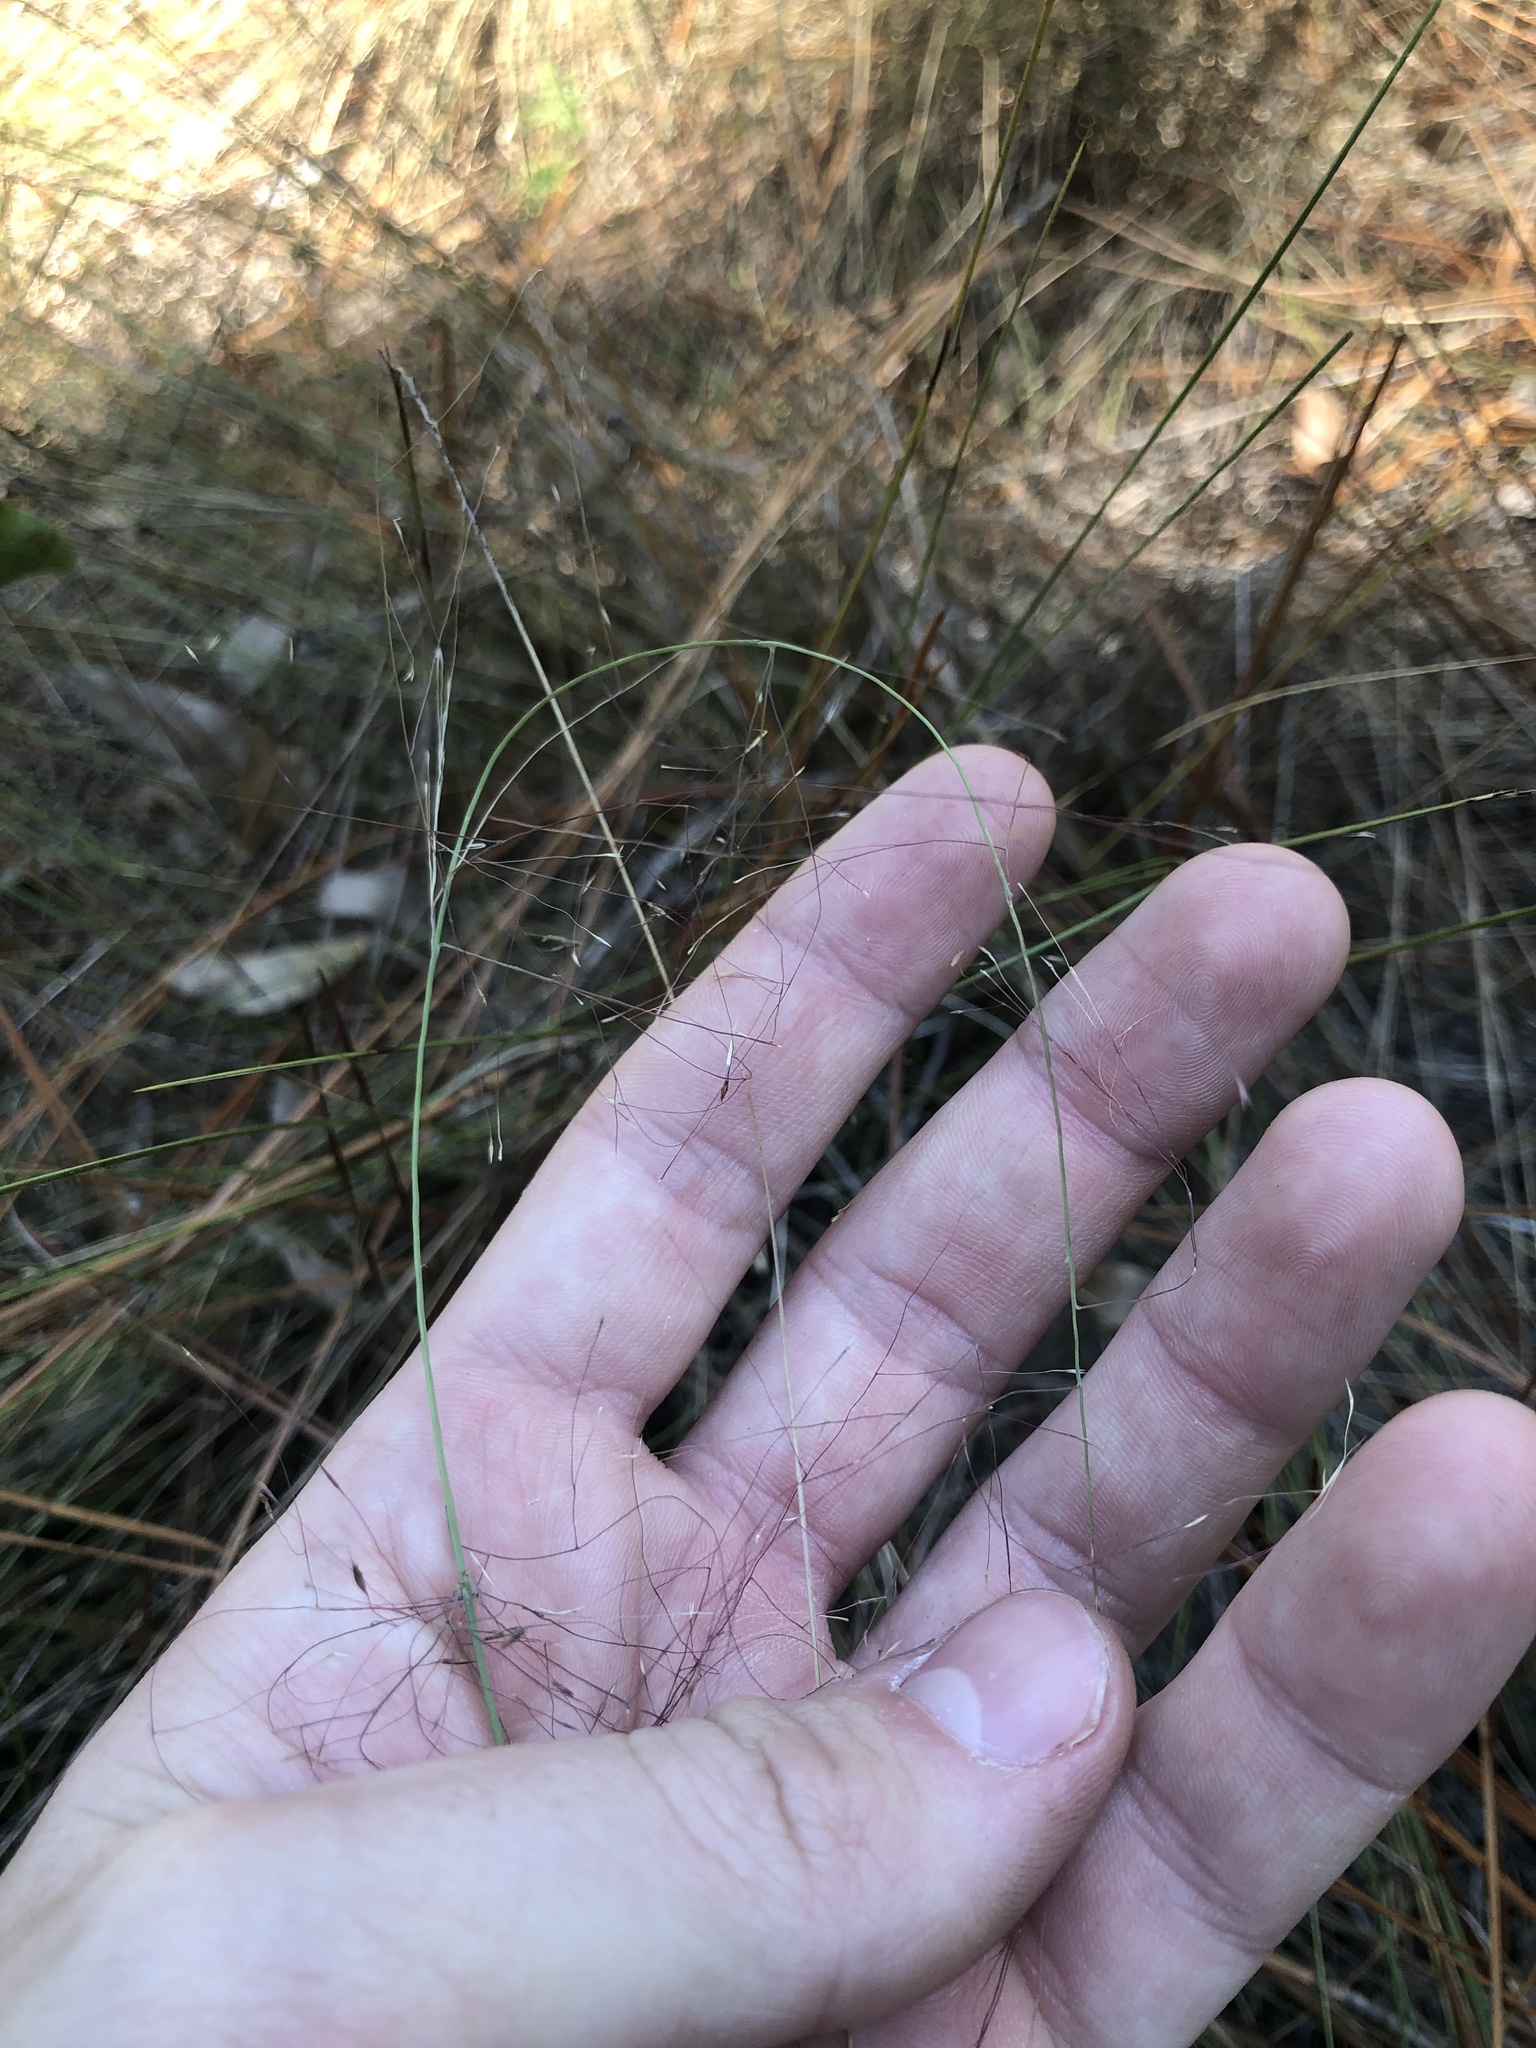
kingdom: Plantae
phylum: Tracheophyta
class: Liliopsida
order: Poales
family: Poaceae
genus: Muhlenbergia
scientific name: Muhlenbergia expansa
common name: Savannah hairgrass
